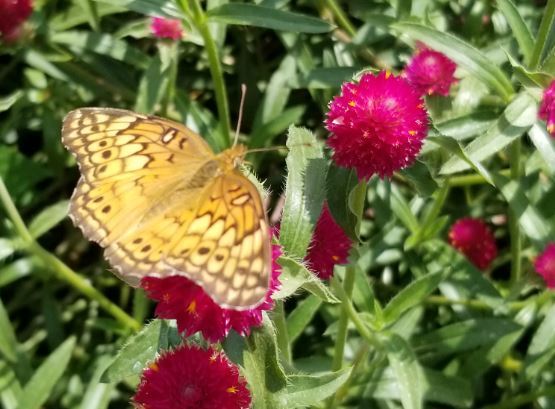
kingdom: Animalia
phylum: Arthropoda
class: Insecta
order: Lepidoptera
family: Nymphalidae
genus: Euptoieta
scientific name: Euptoieta claudia
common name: Variegated fritillary
